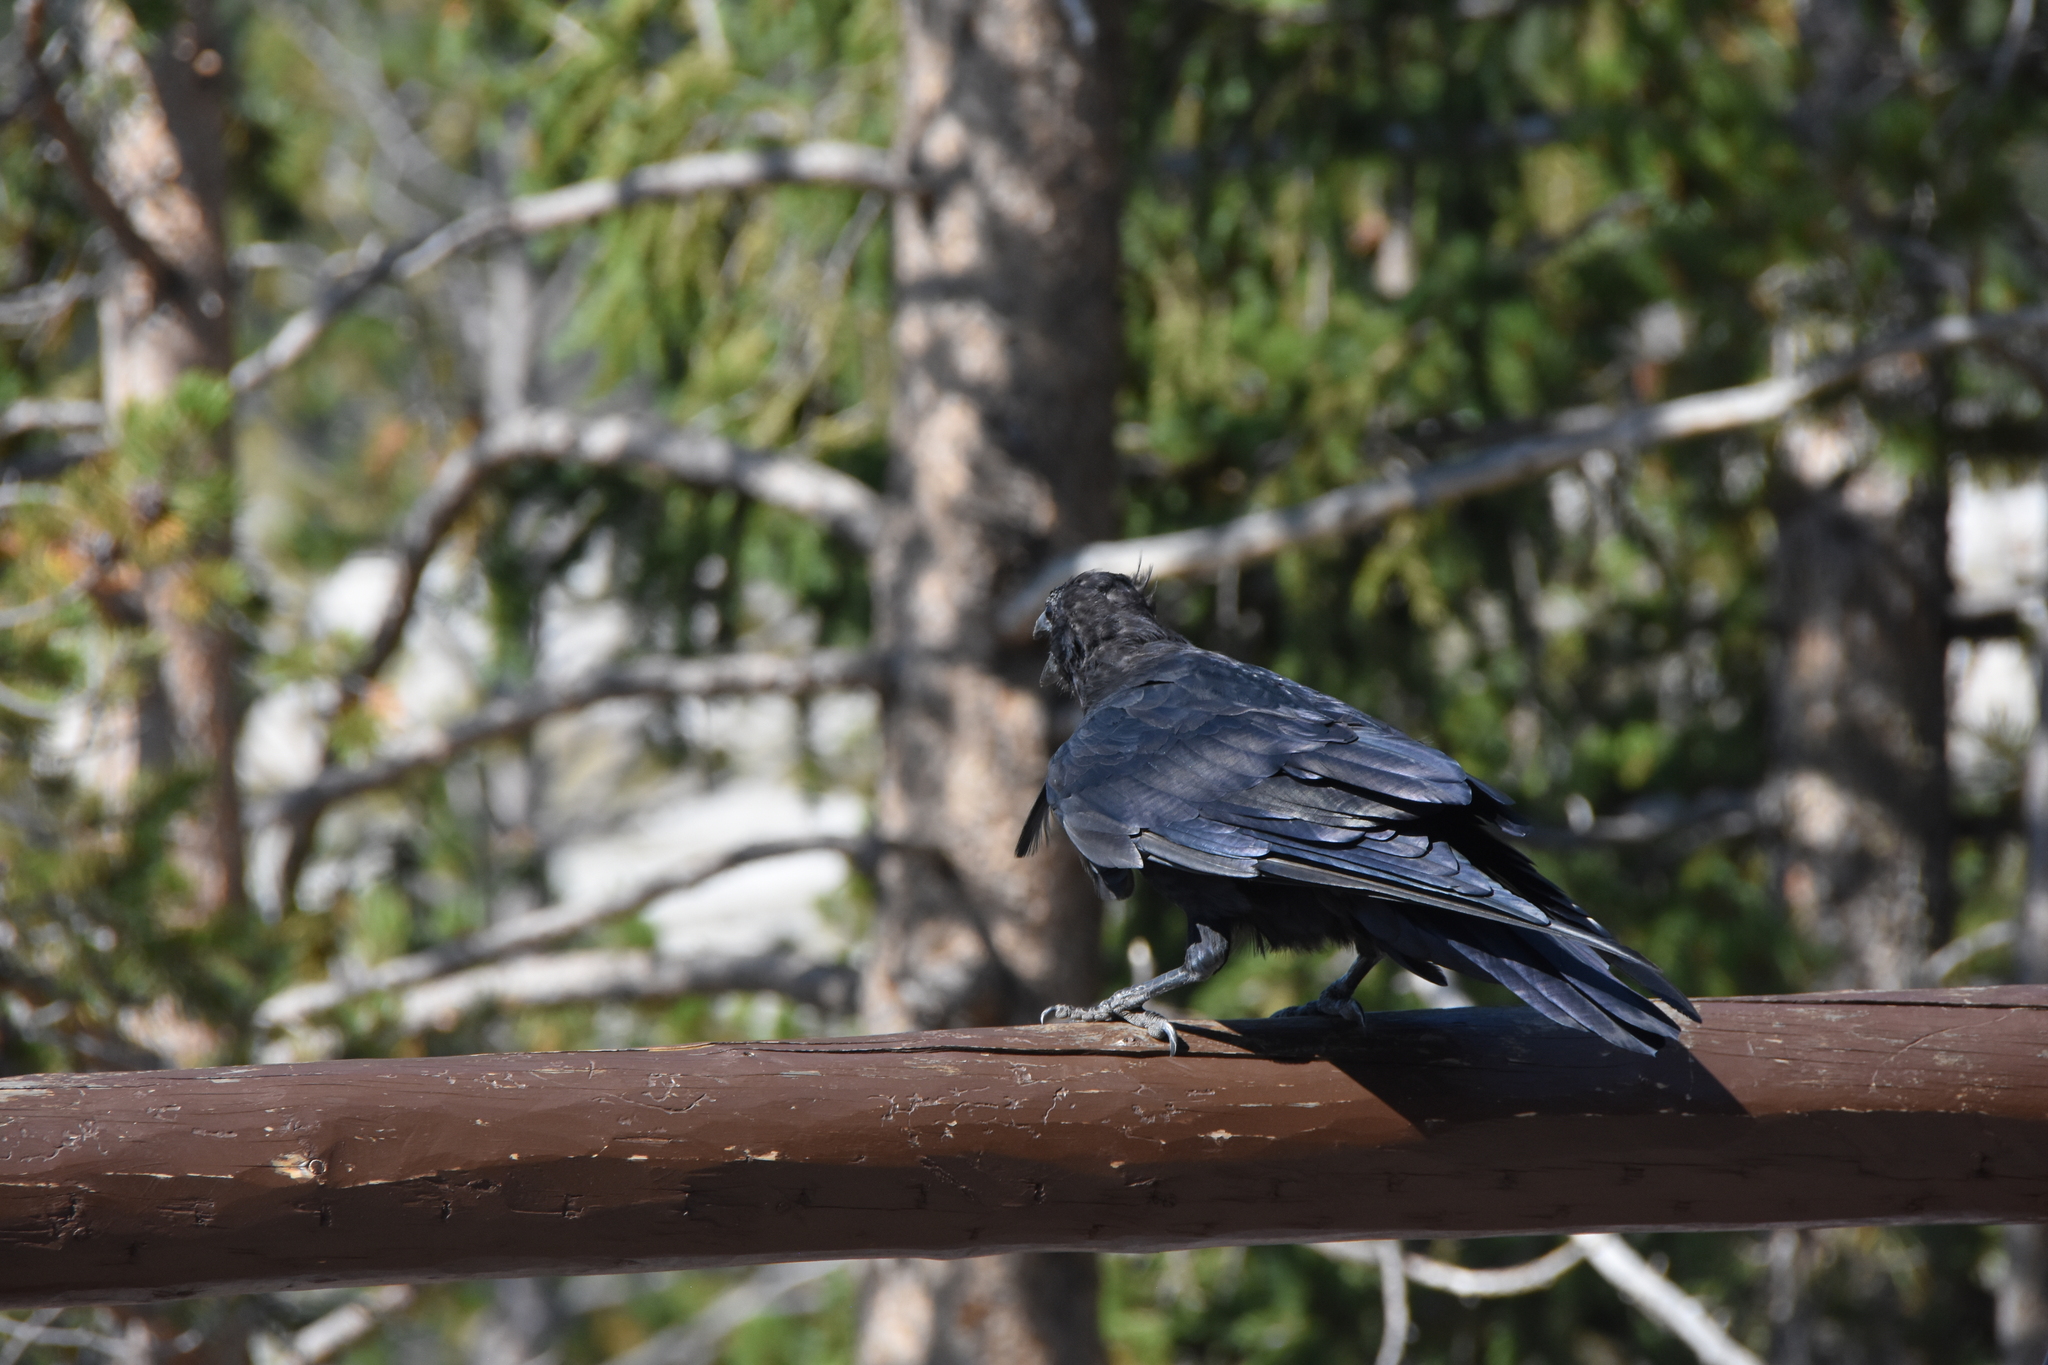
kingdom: Animalia
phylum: Chordata
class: Aves
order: Passeriformes
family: Corvidae
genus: Corvus
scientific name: Corvus corax
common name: Common raven
